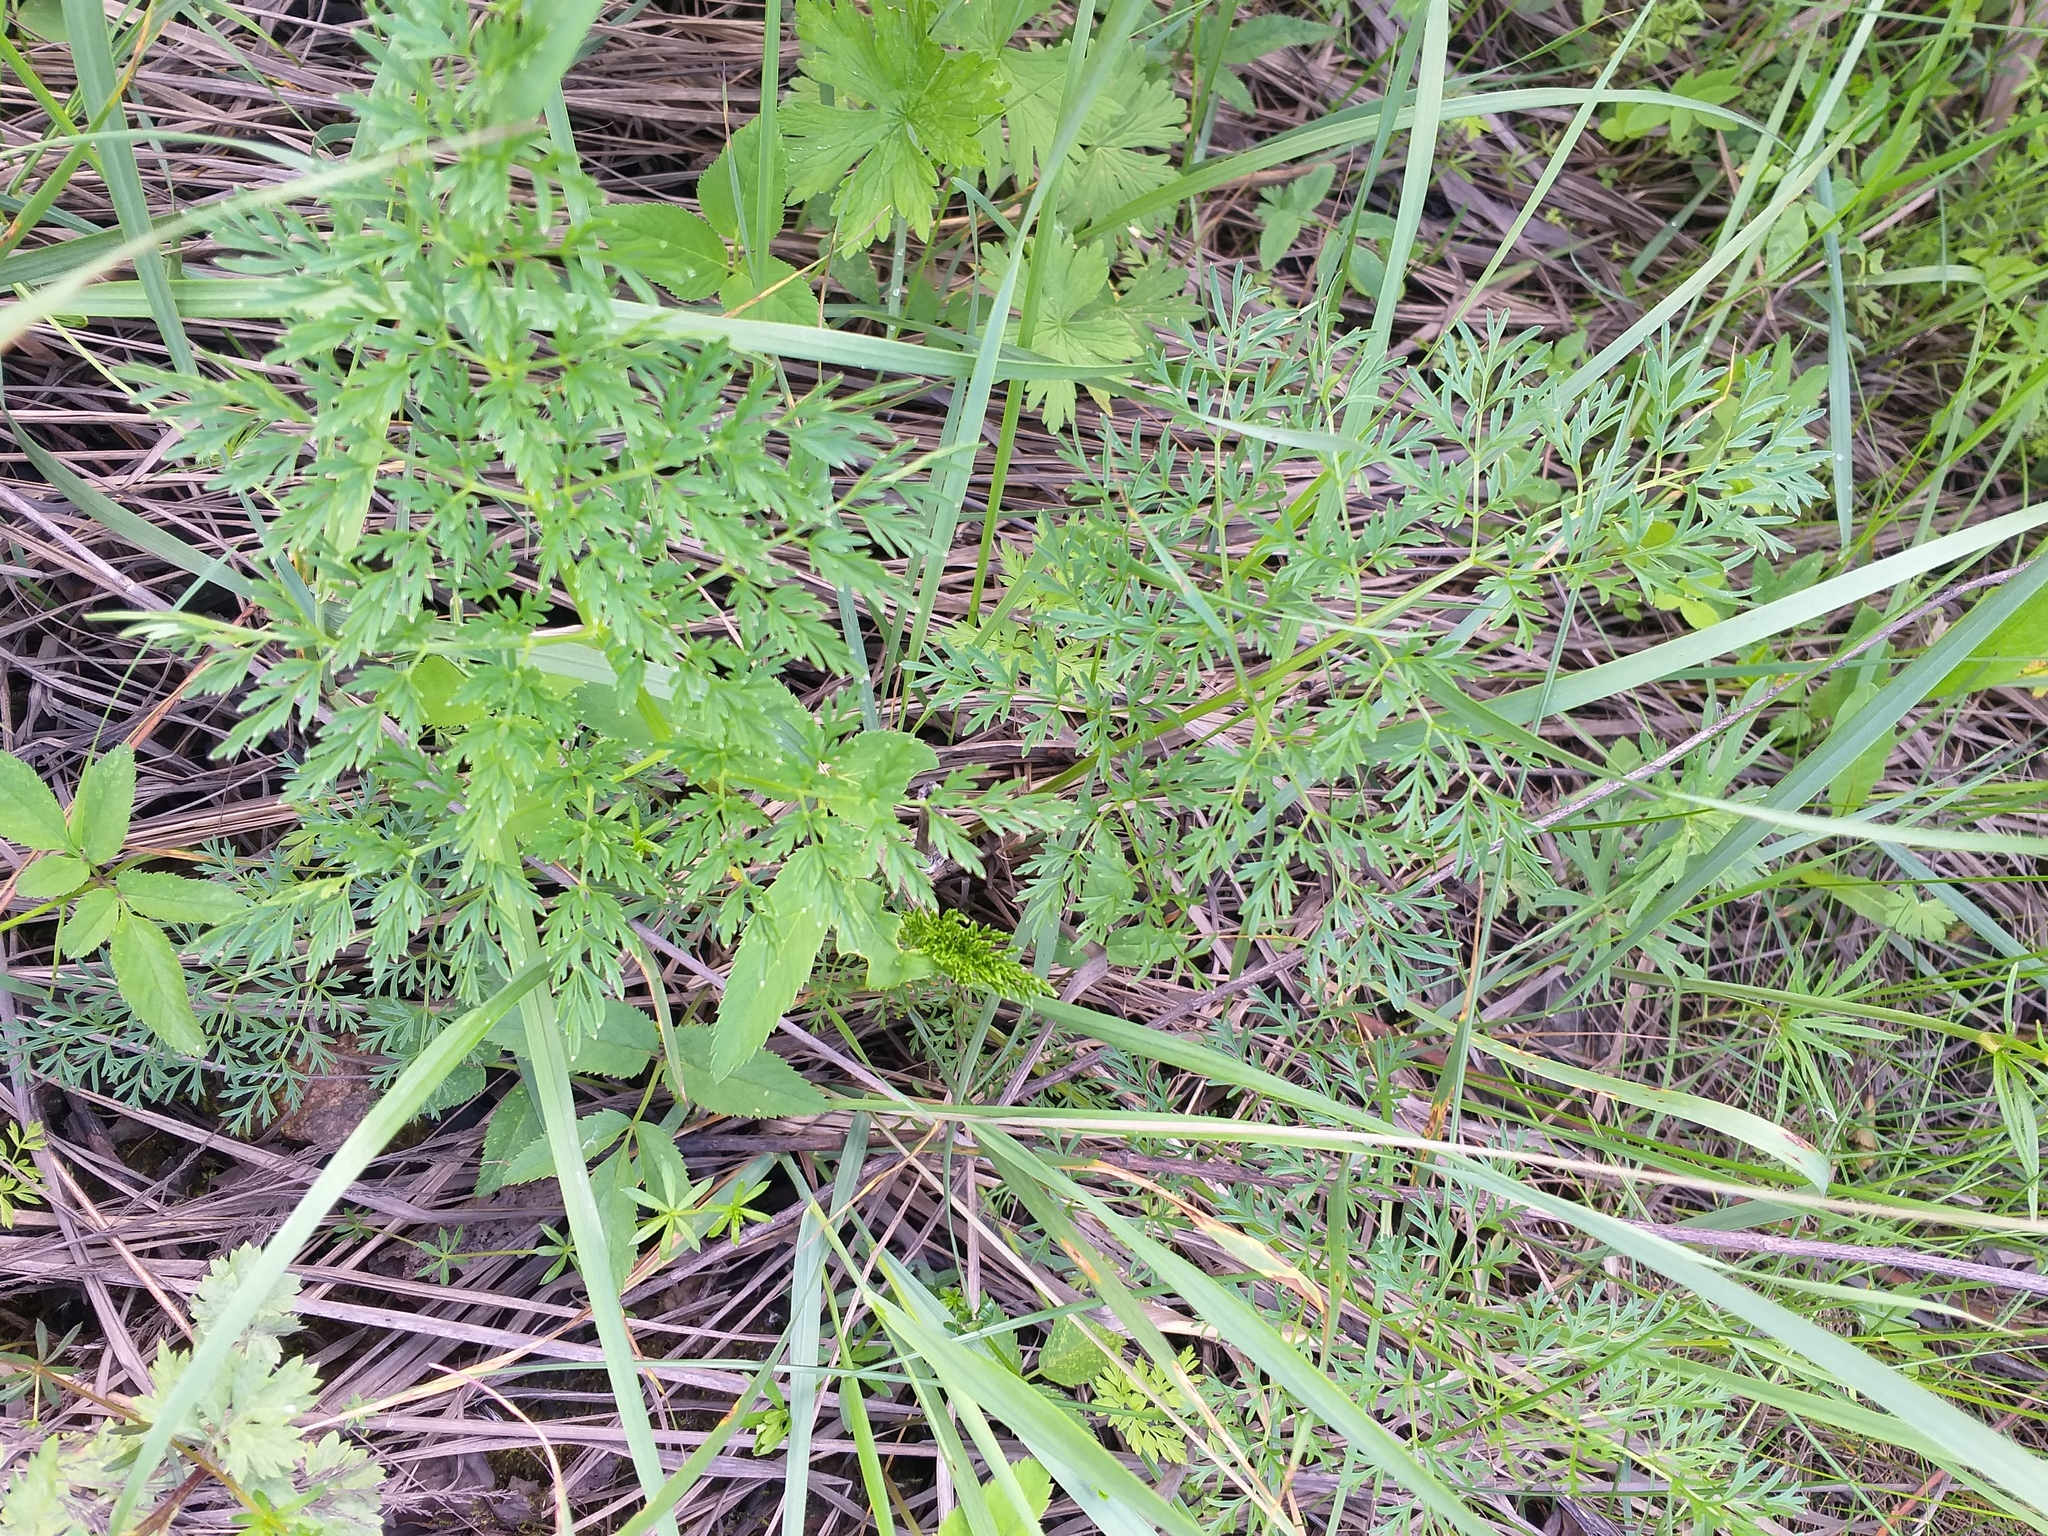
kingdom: Plantae
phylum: Tracheophyta
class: Magnoliopsida
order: Apiales
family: Apiaceae
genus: Selinum
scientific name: Selinum carvifolia
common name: Cambridge milk-parsley
